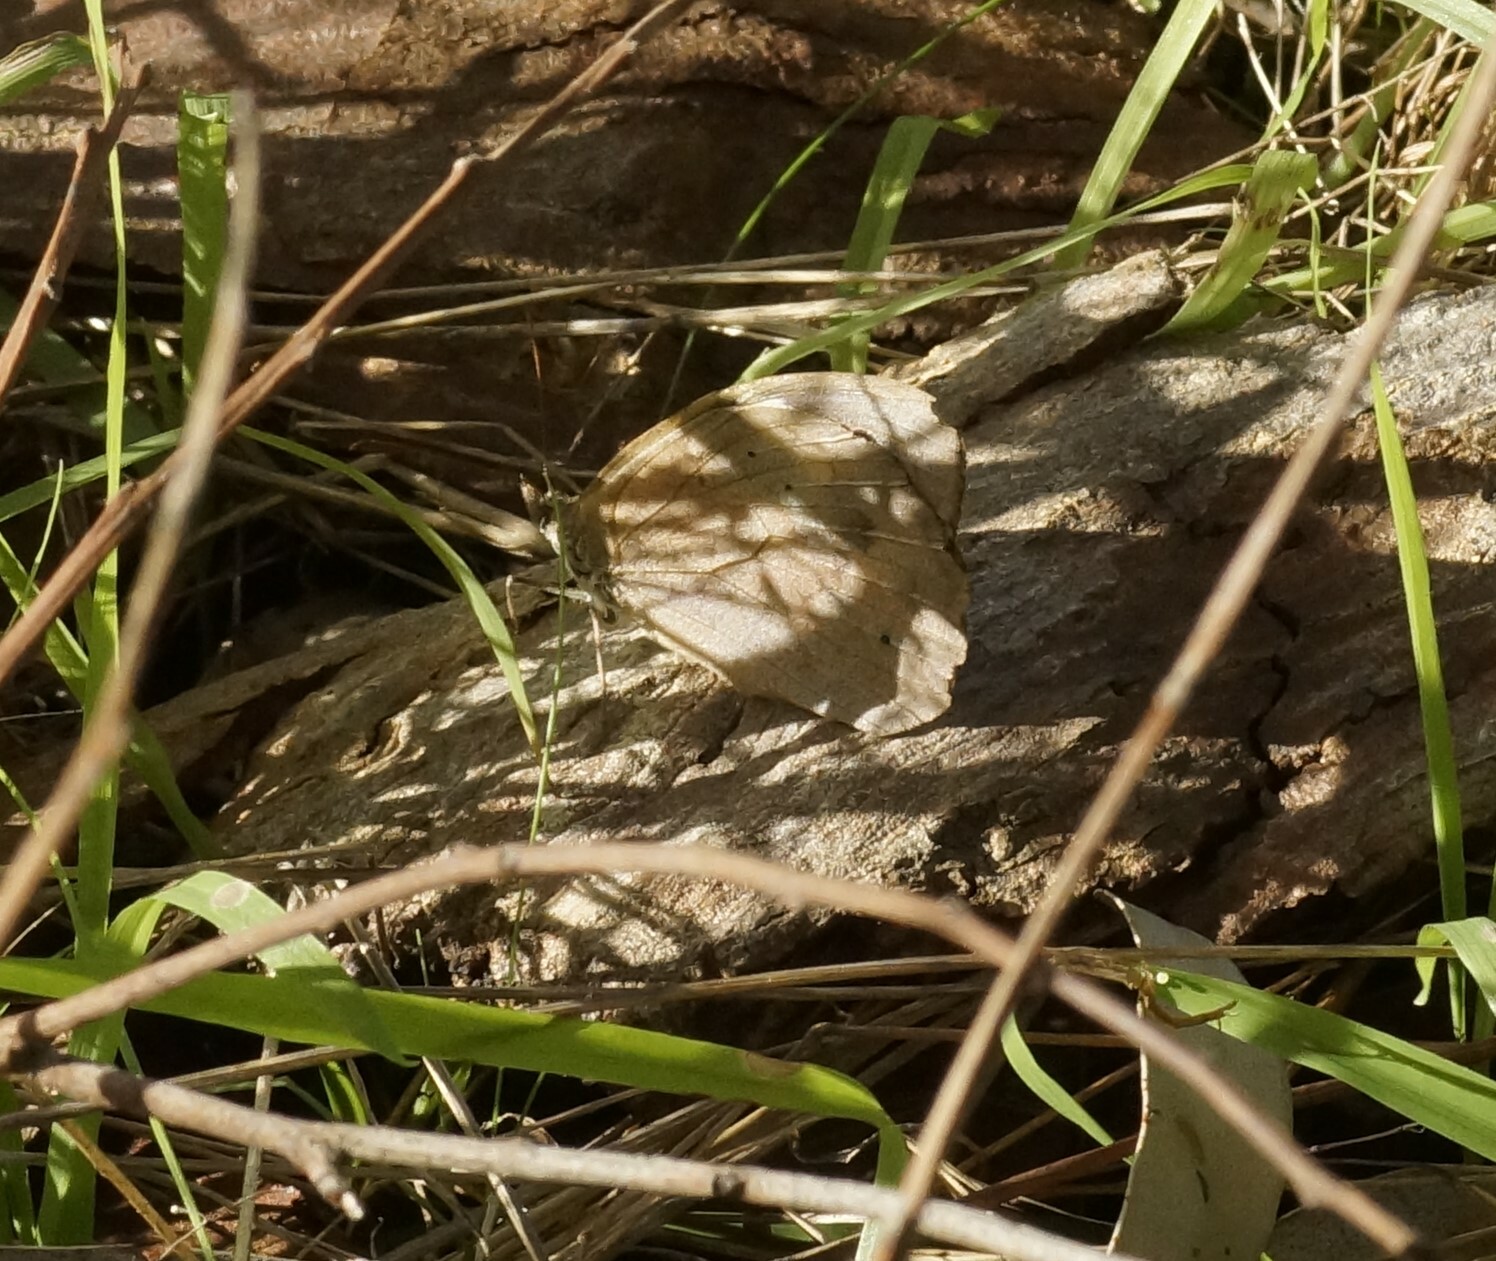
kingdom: Animalia
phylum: Arthropoda
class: Insecta
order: Lepidoptera
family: Nymphalidae
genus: Heteronympha
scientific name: Heteronympha merope
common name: Common brown
